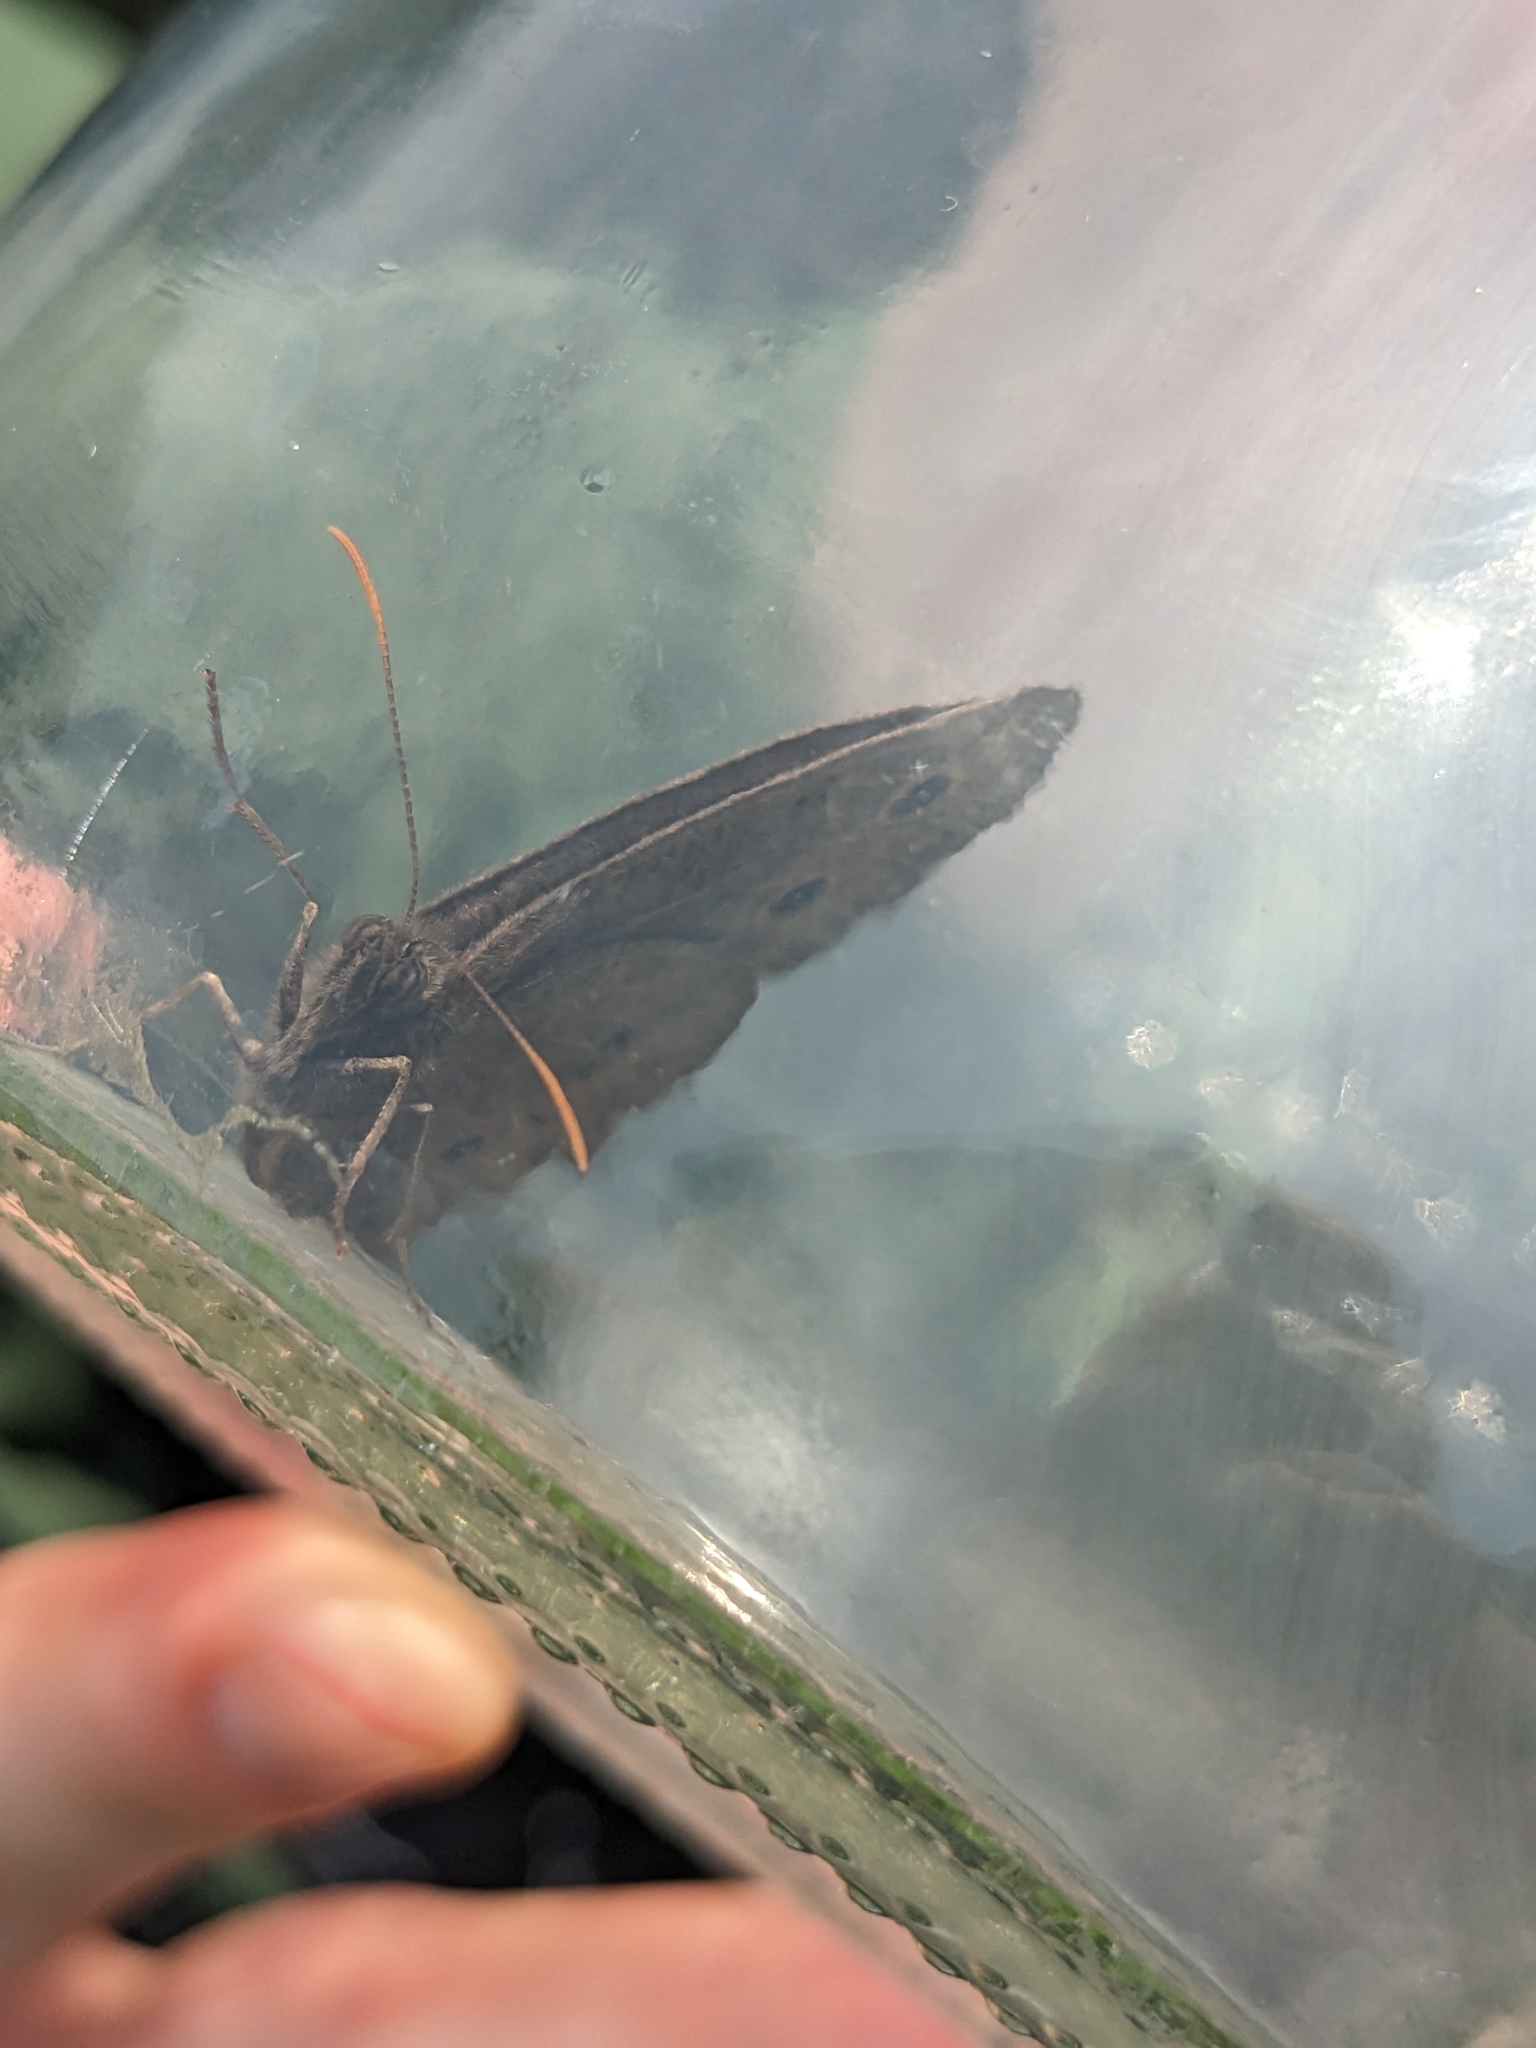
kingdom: Animalia
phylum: Arthropoda
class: Insecta
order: Lepidoptera
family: Nymphalidae
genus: Cercyonis
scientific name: Cercyonis pegala
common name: Common wood-nymph
